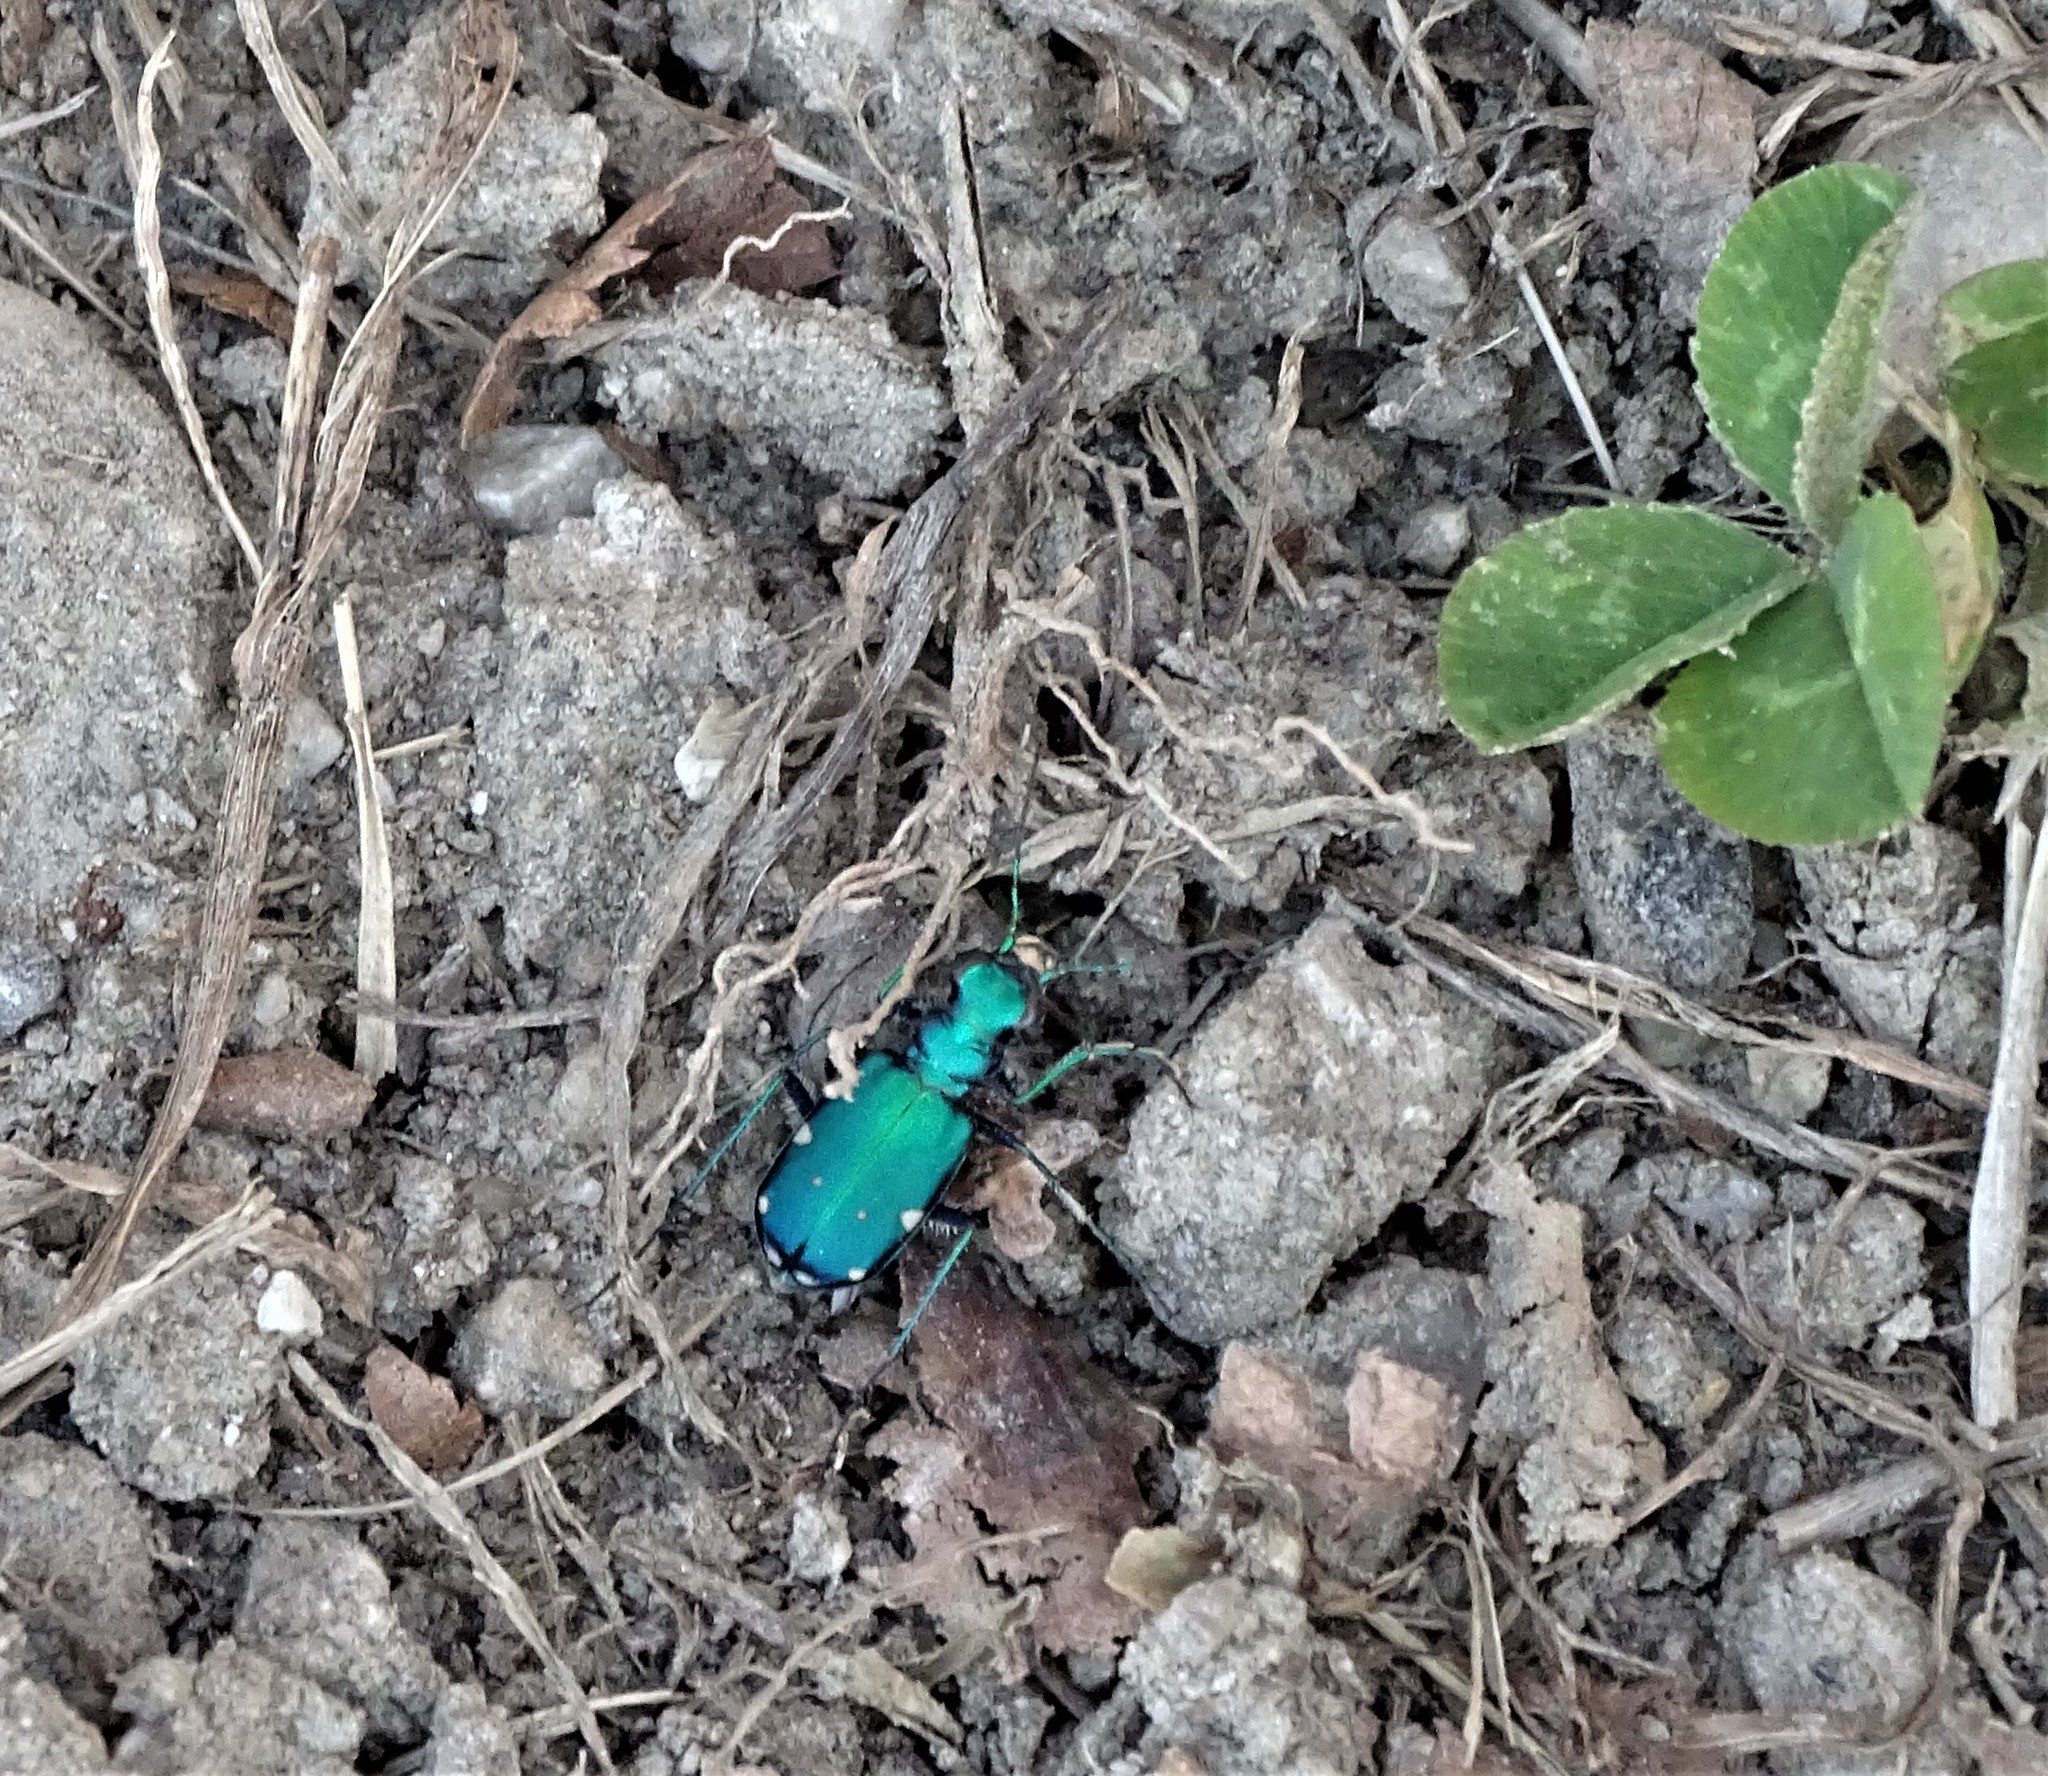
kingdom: Animalia
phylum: Arthropoda
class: Insecta
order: Coleoptera
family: Carabidae
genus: Cicindela
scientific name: Cicindela sexguttata
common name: Six-spotted tiger beetle
